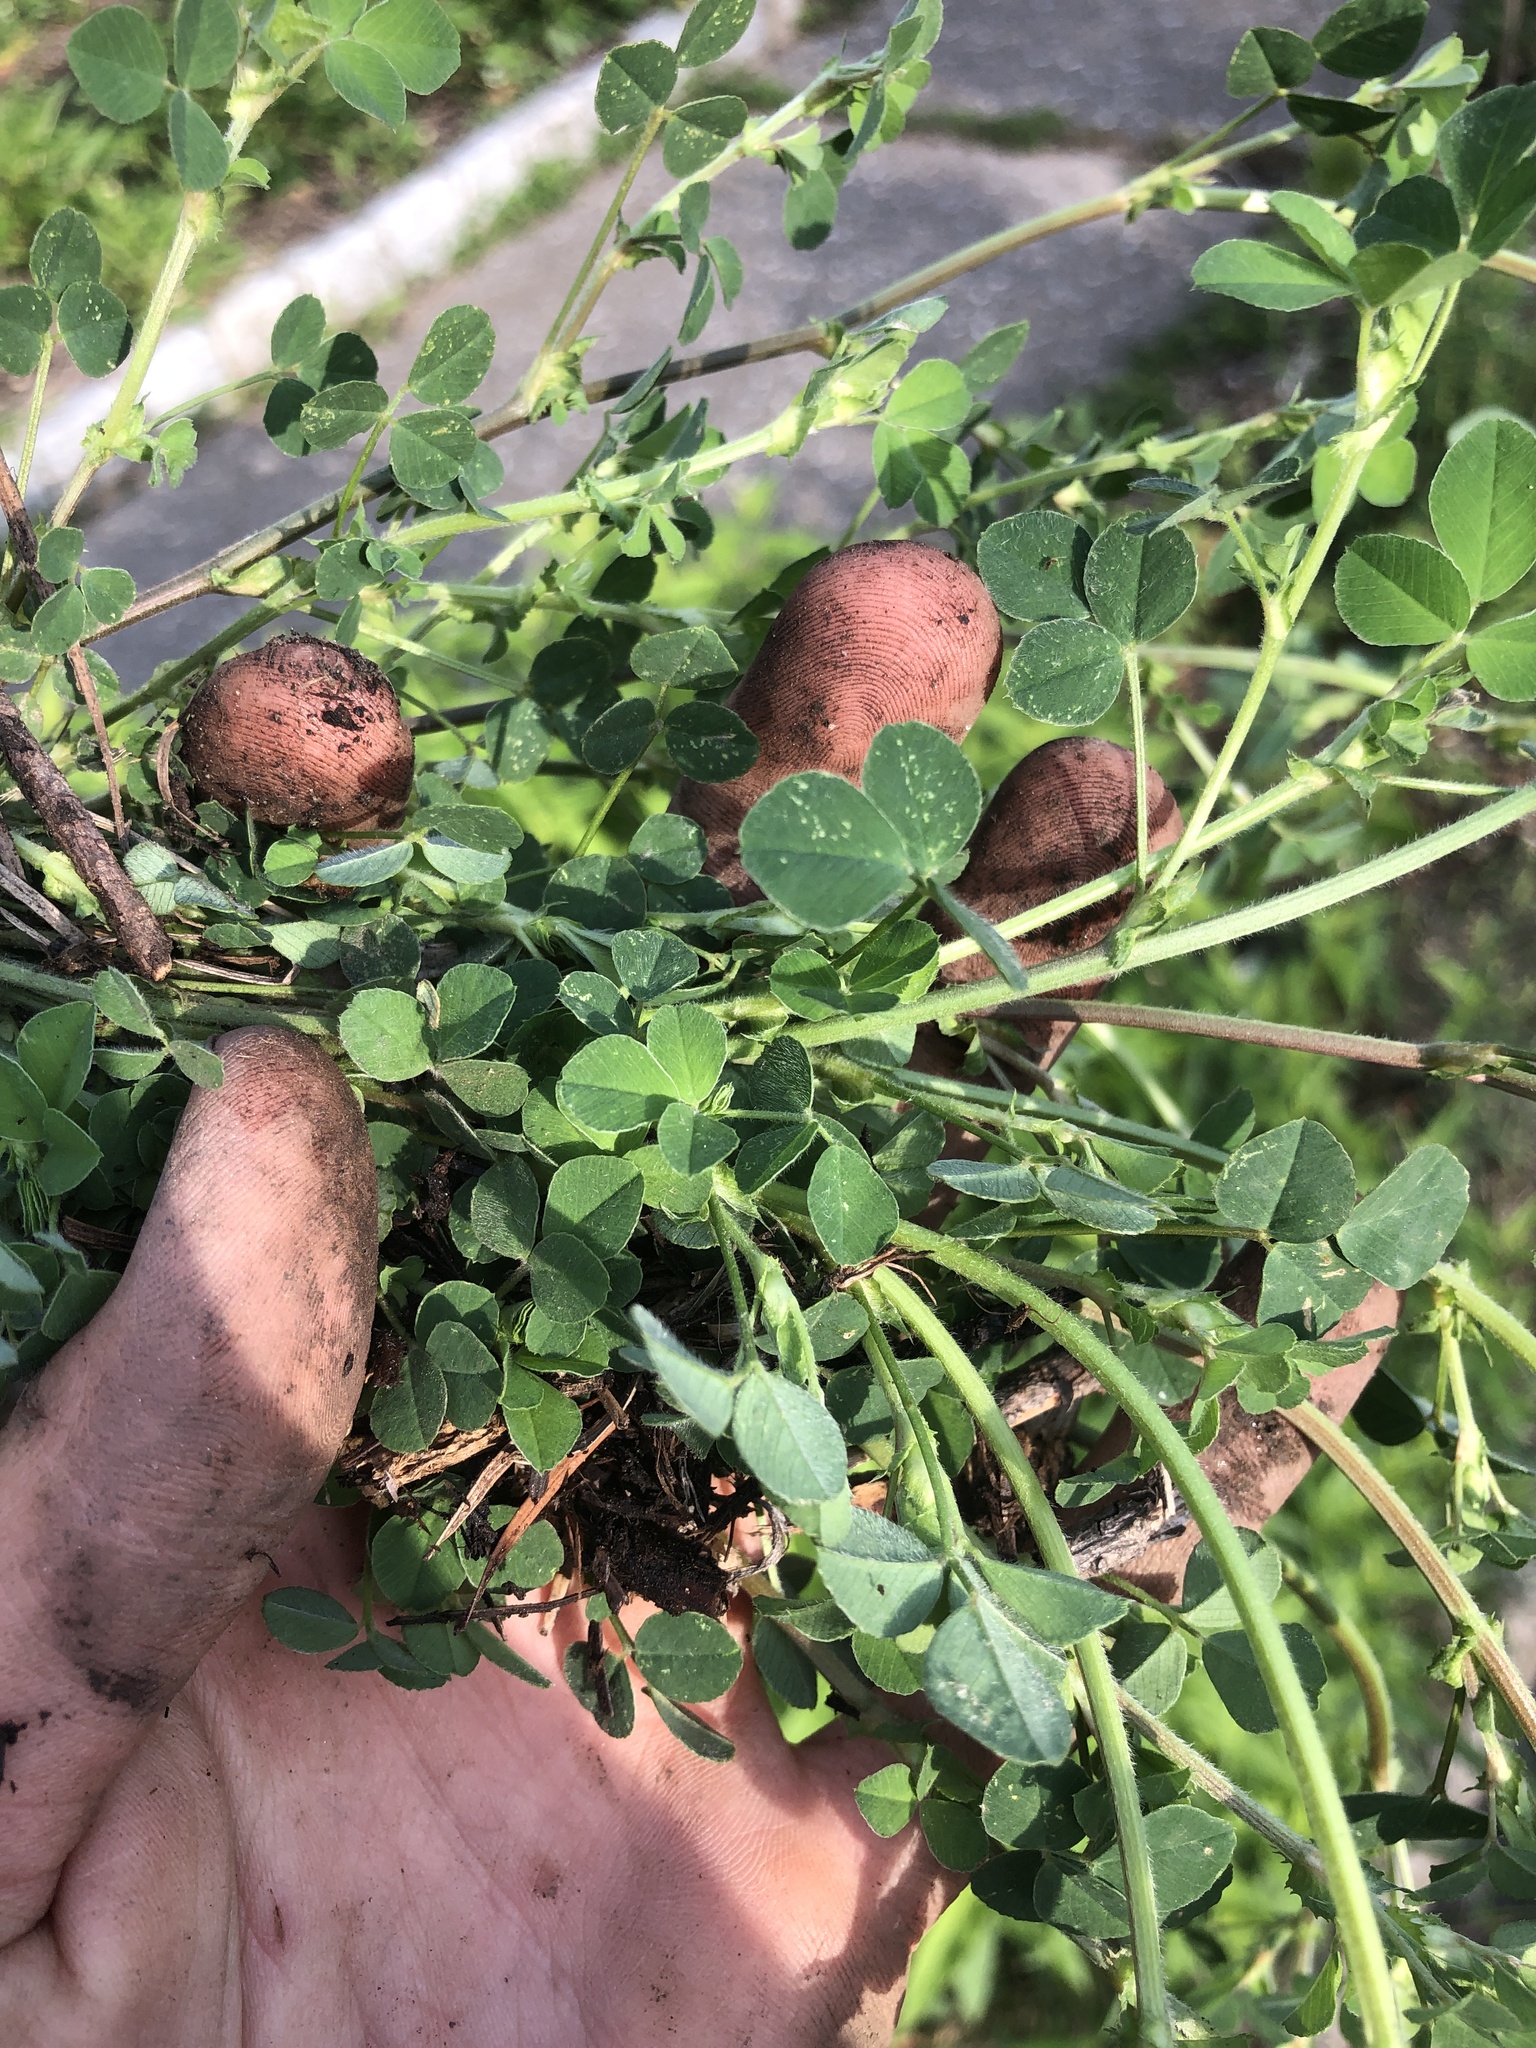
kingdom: Plantae
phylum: Tracheophyta
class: Magnoliopsida
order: Fabales
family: Fabaceae
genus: Medicago
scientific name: Medicago lupulina
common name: Black medick
